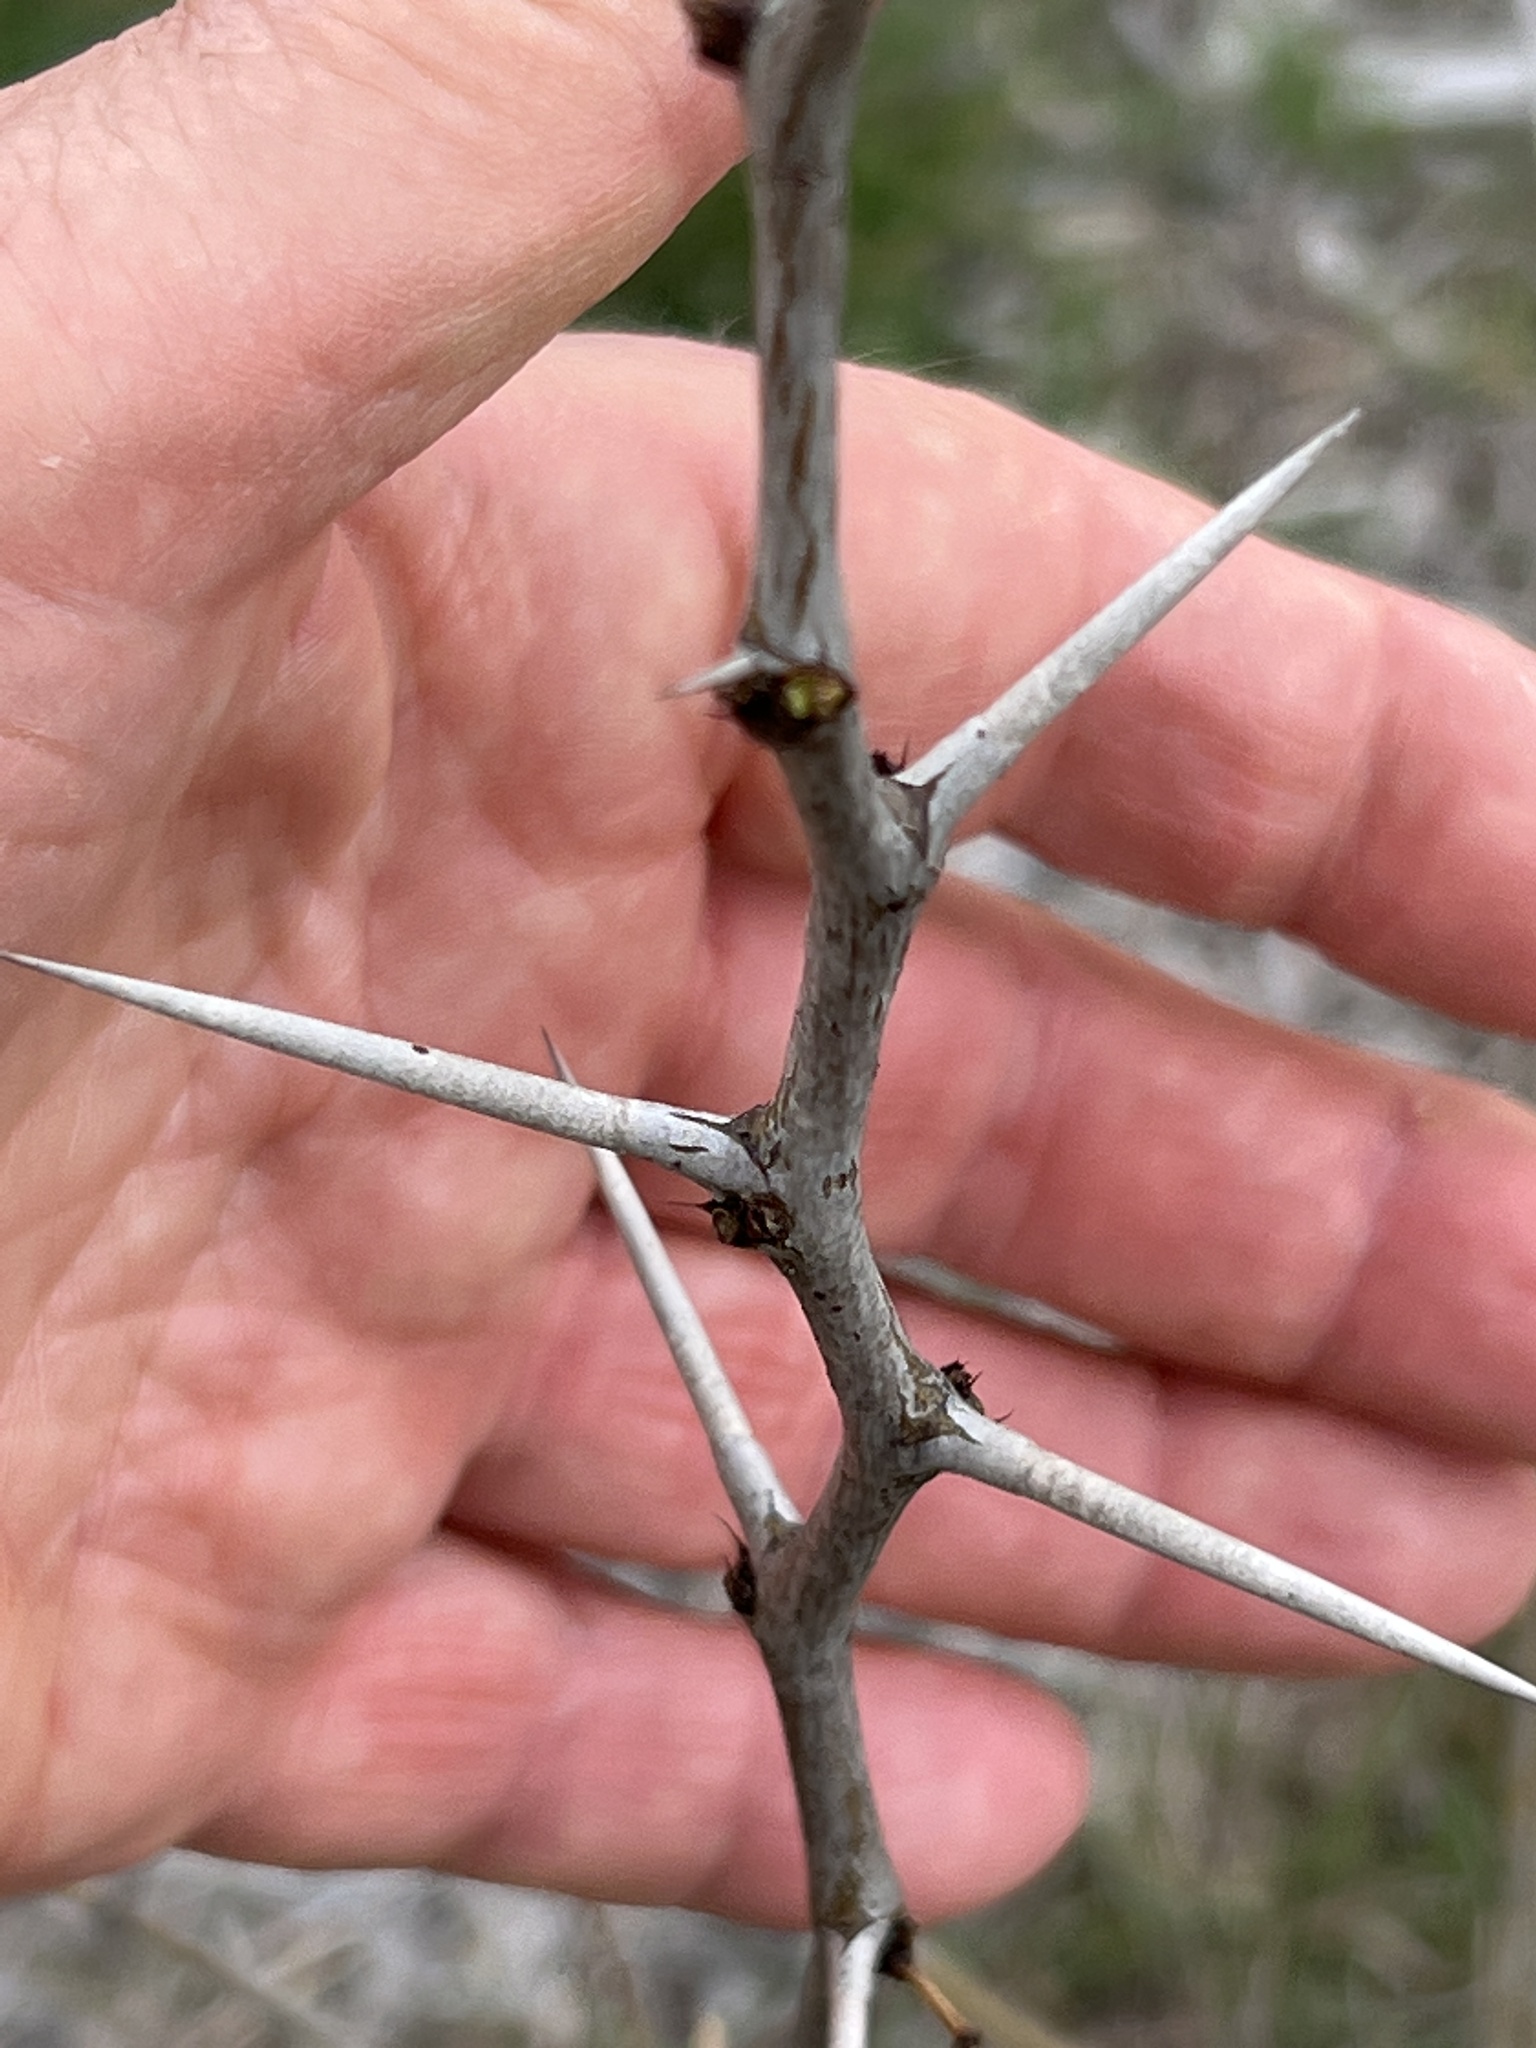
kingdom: Plantae
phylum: Tracheophyta
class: Magnoliopsida
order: Fabales
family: Fabaceae
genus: Prosopis
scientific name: Prosopis glandulosa
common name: Honey mesquite
